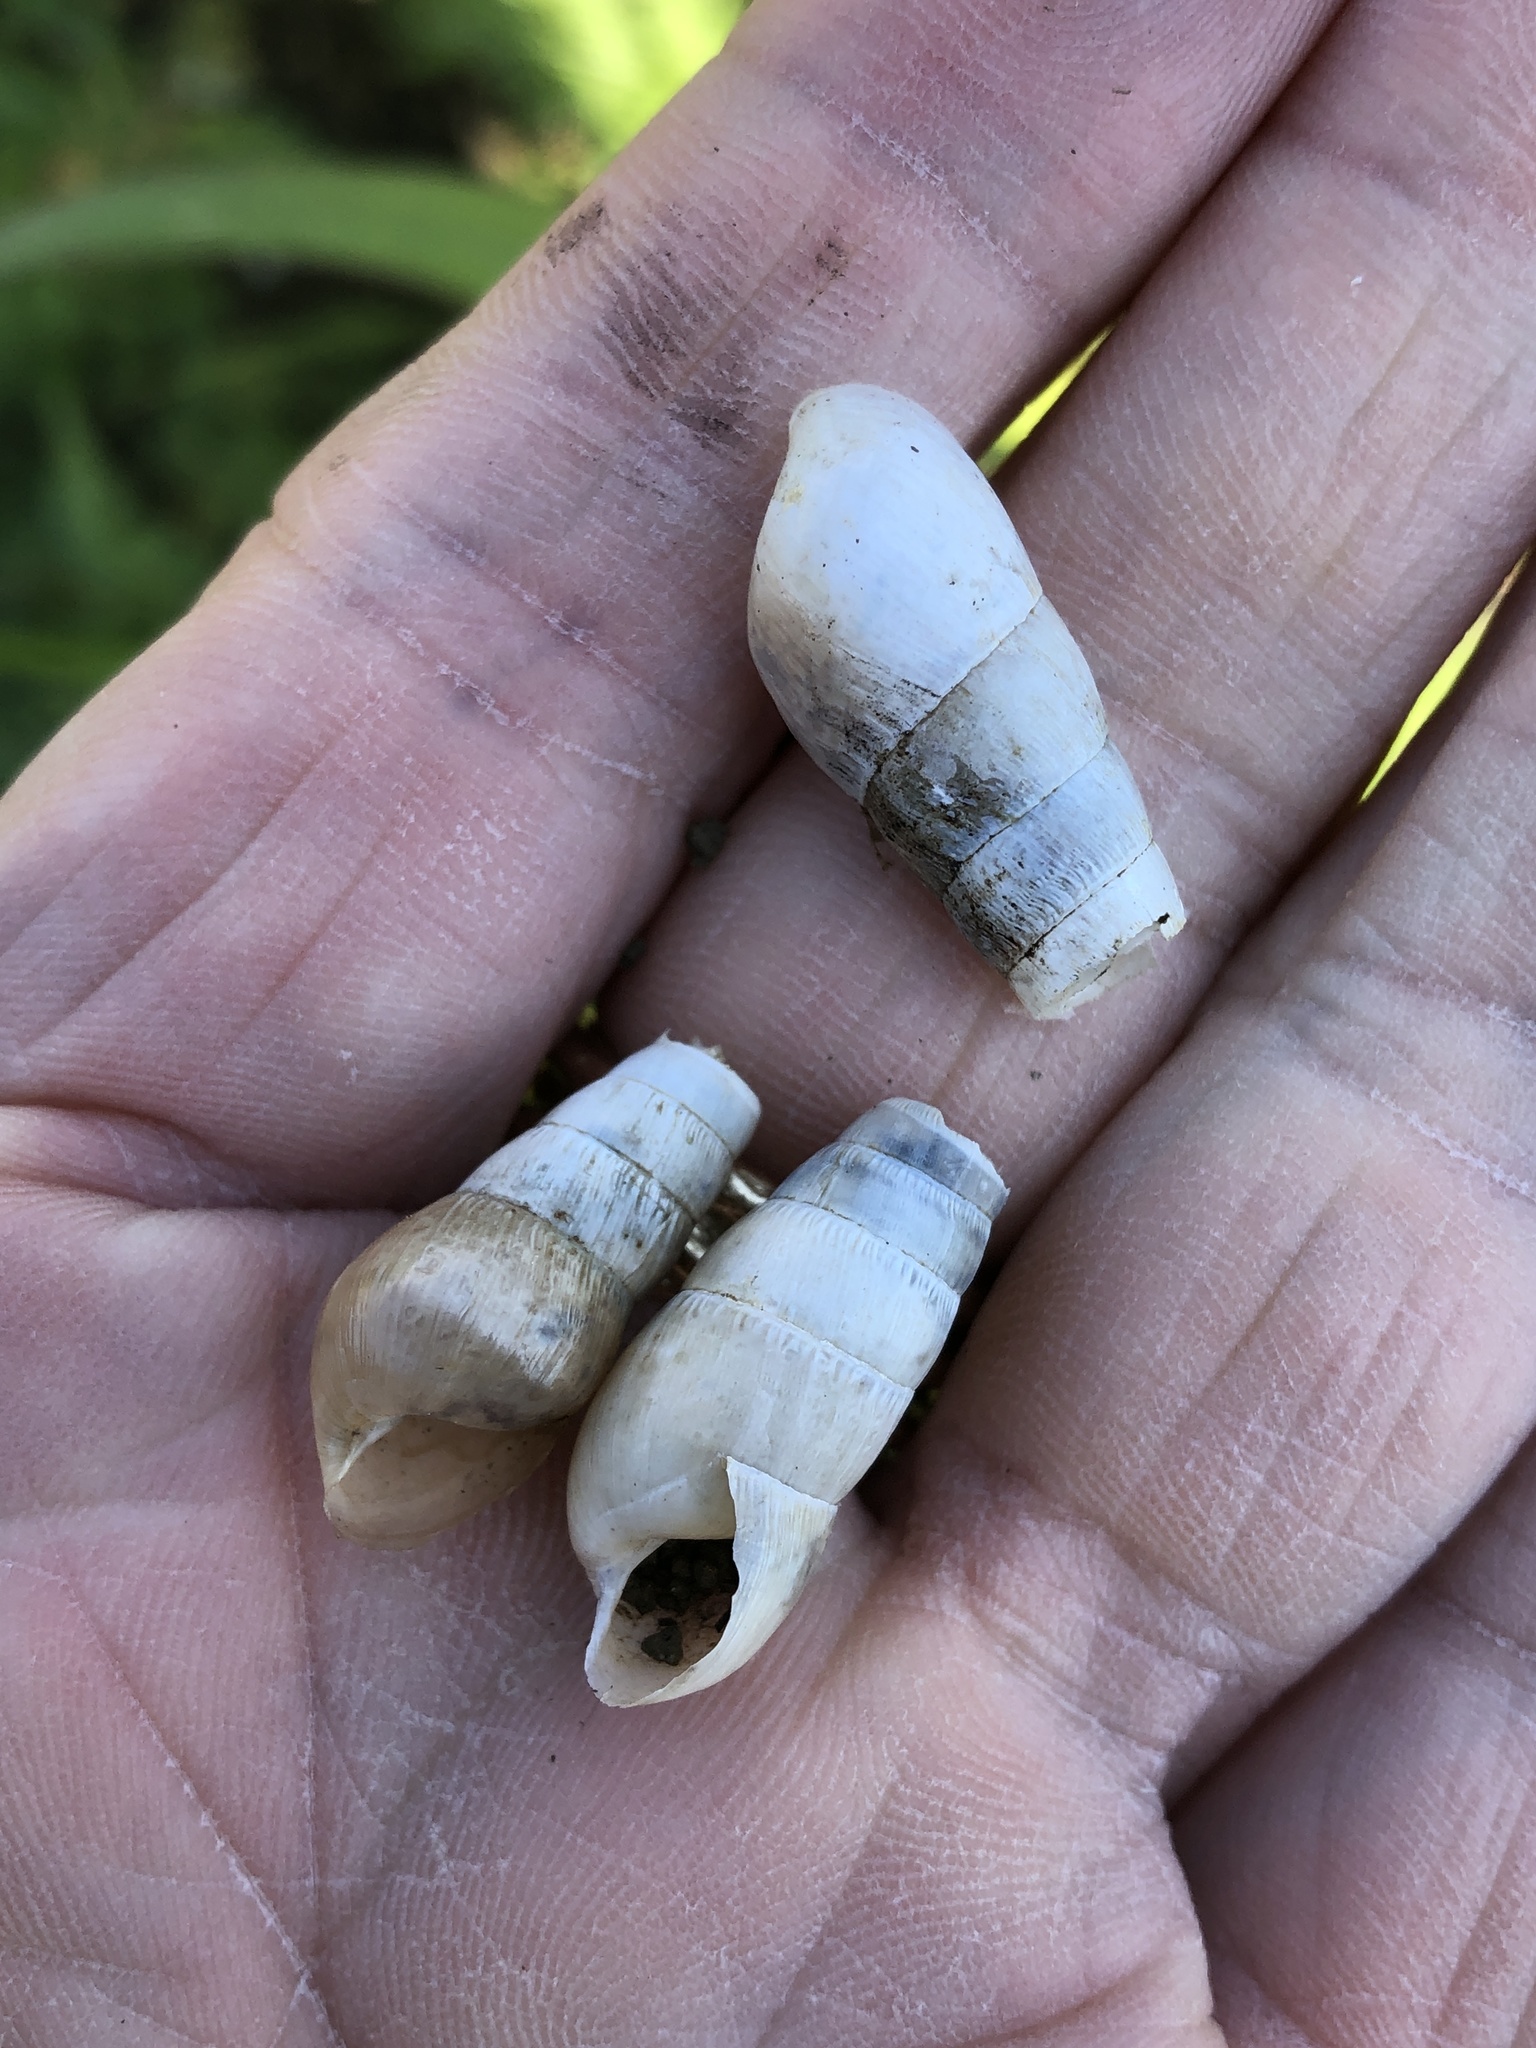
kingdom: Animalia
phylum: Mollusca
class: Gastropoda
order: Stylommatophora
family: Achatinidae
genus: Rumina
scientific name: Rumina decollata
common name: Decollate snail
